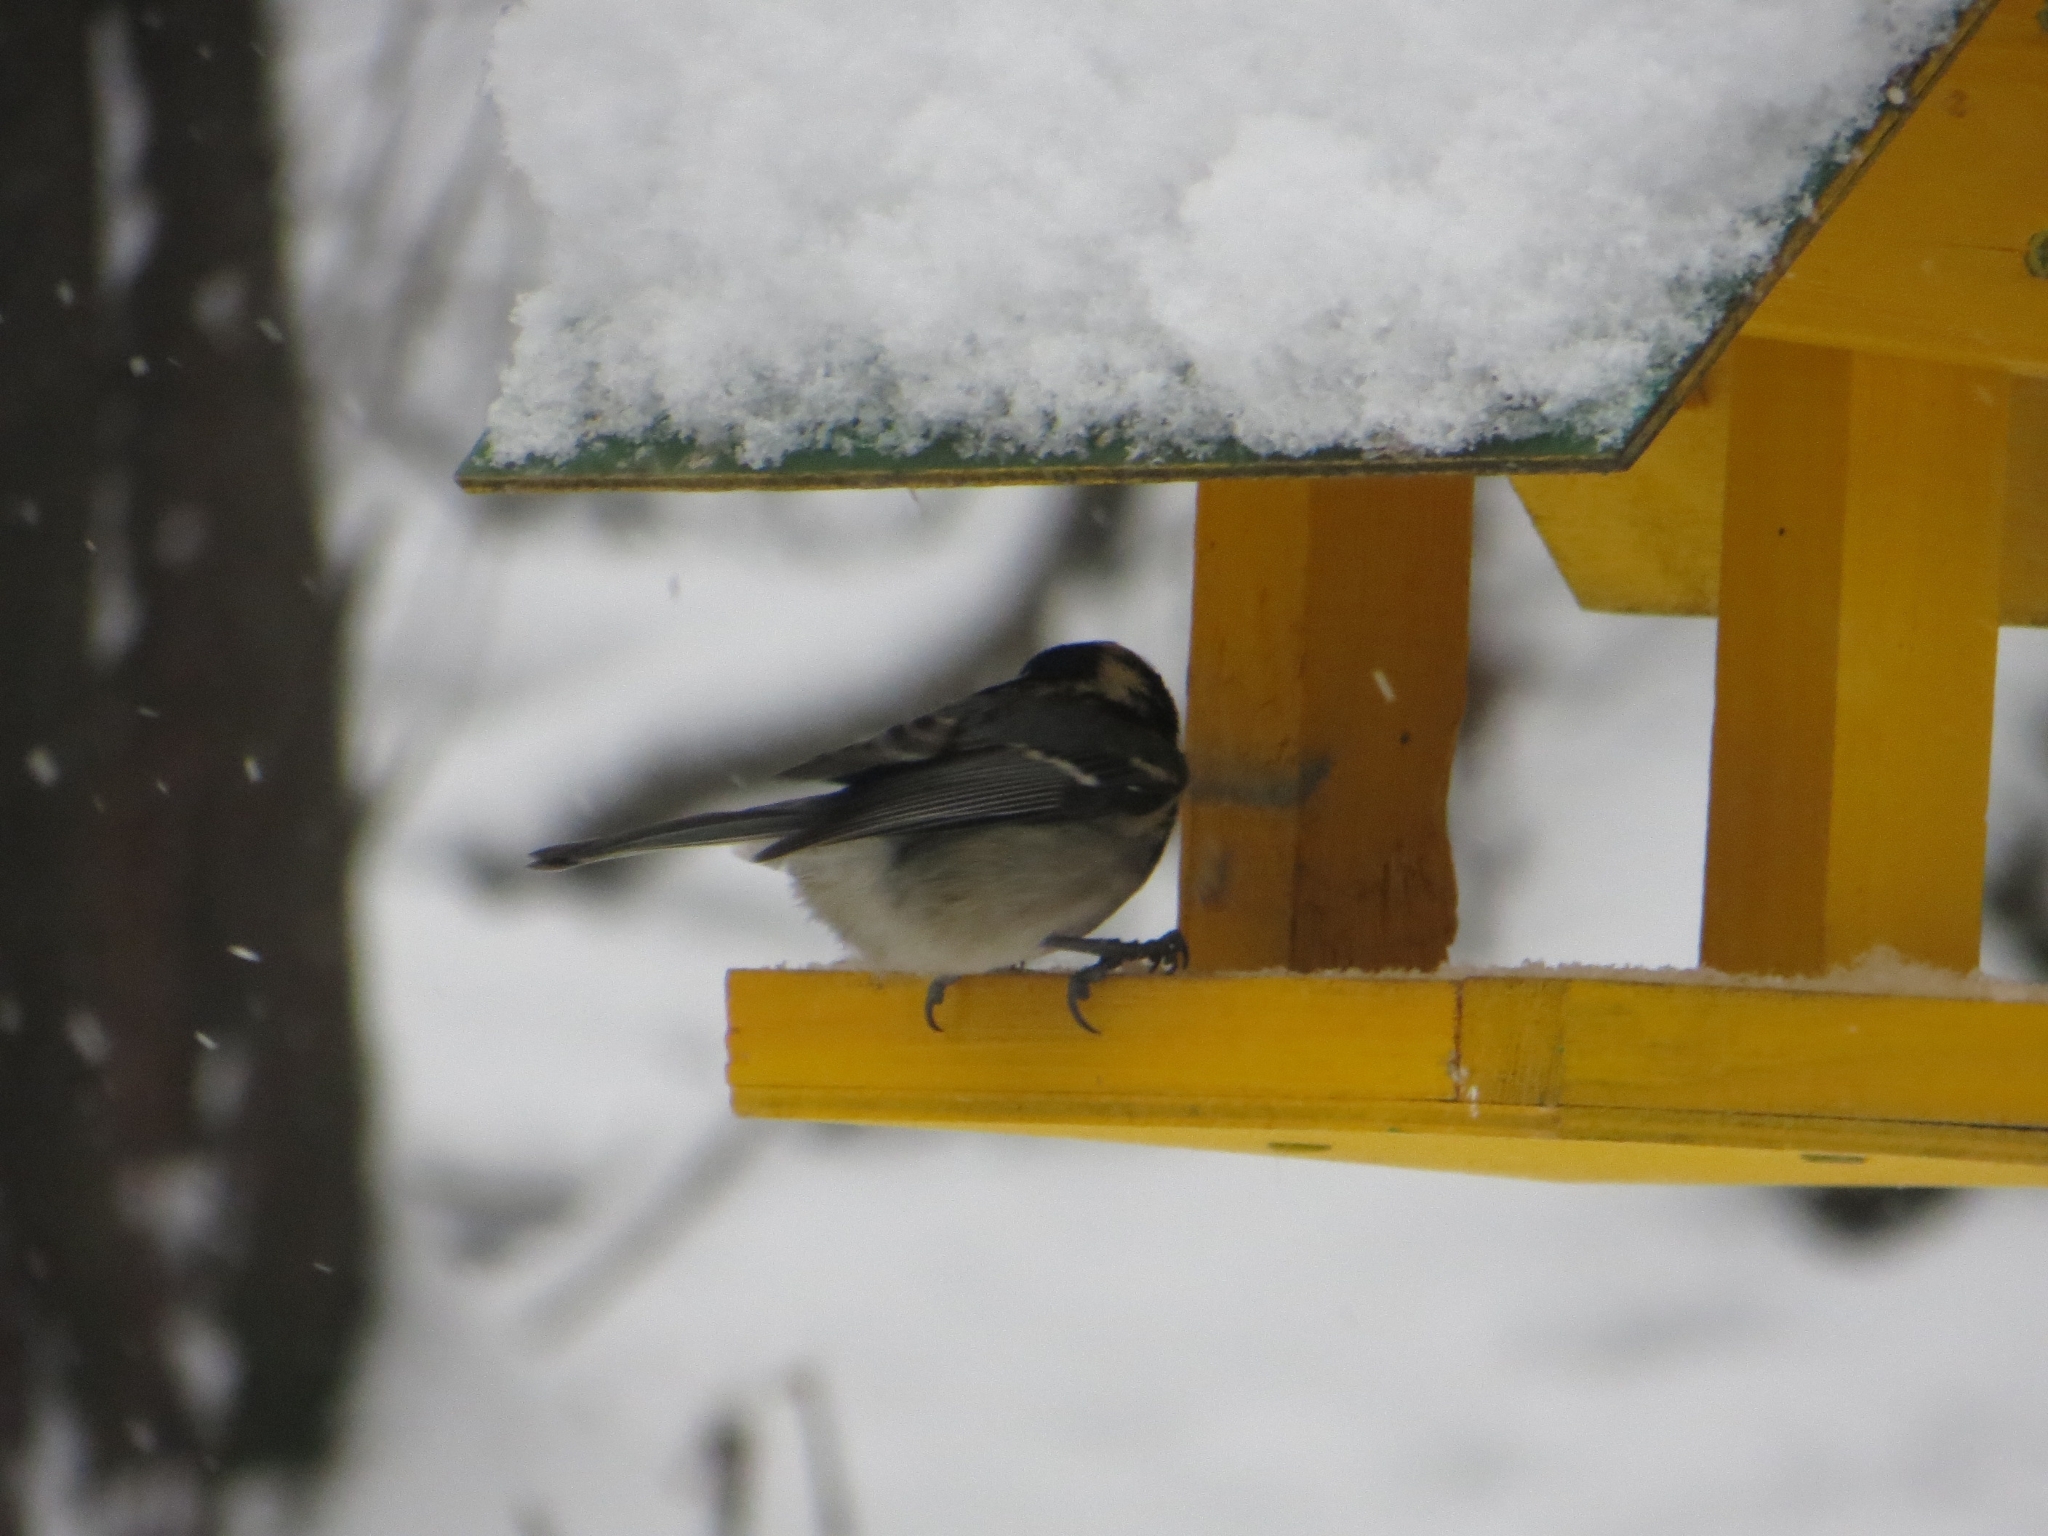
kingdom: Animalia
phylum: Chordata
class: Aves
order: Passeriformes
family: Paridae
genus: Periparus
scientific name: Periparus ater
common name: Coal tit
